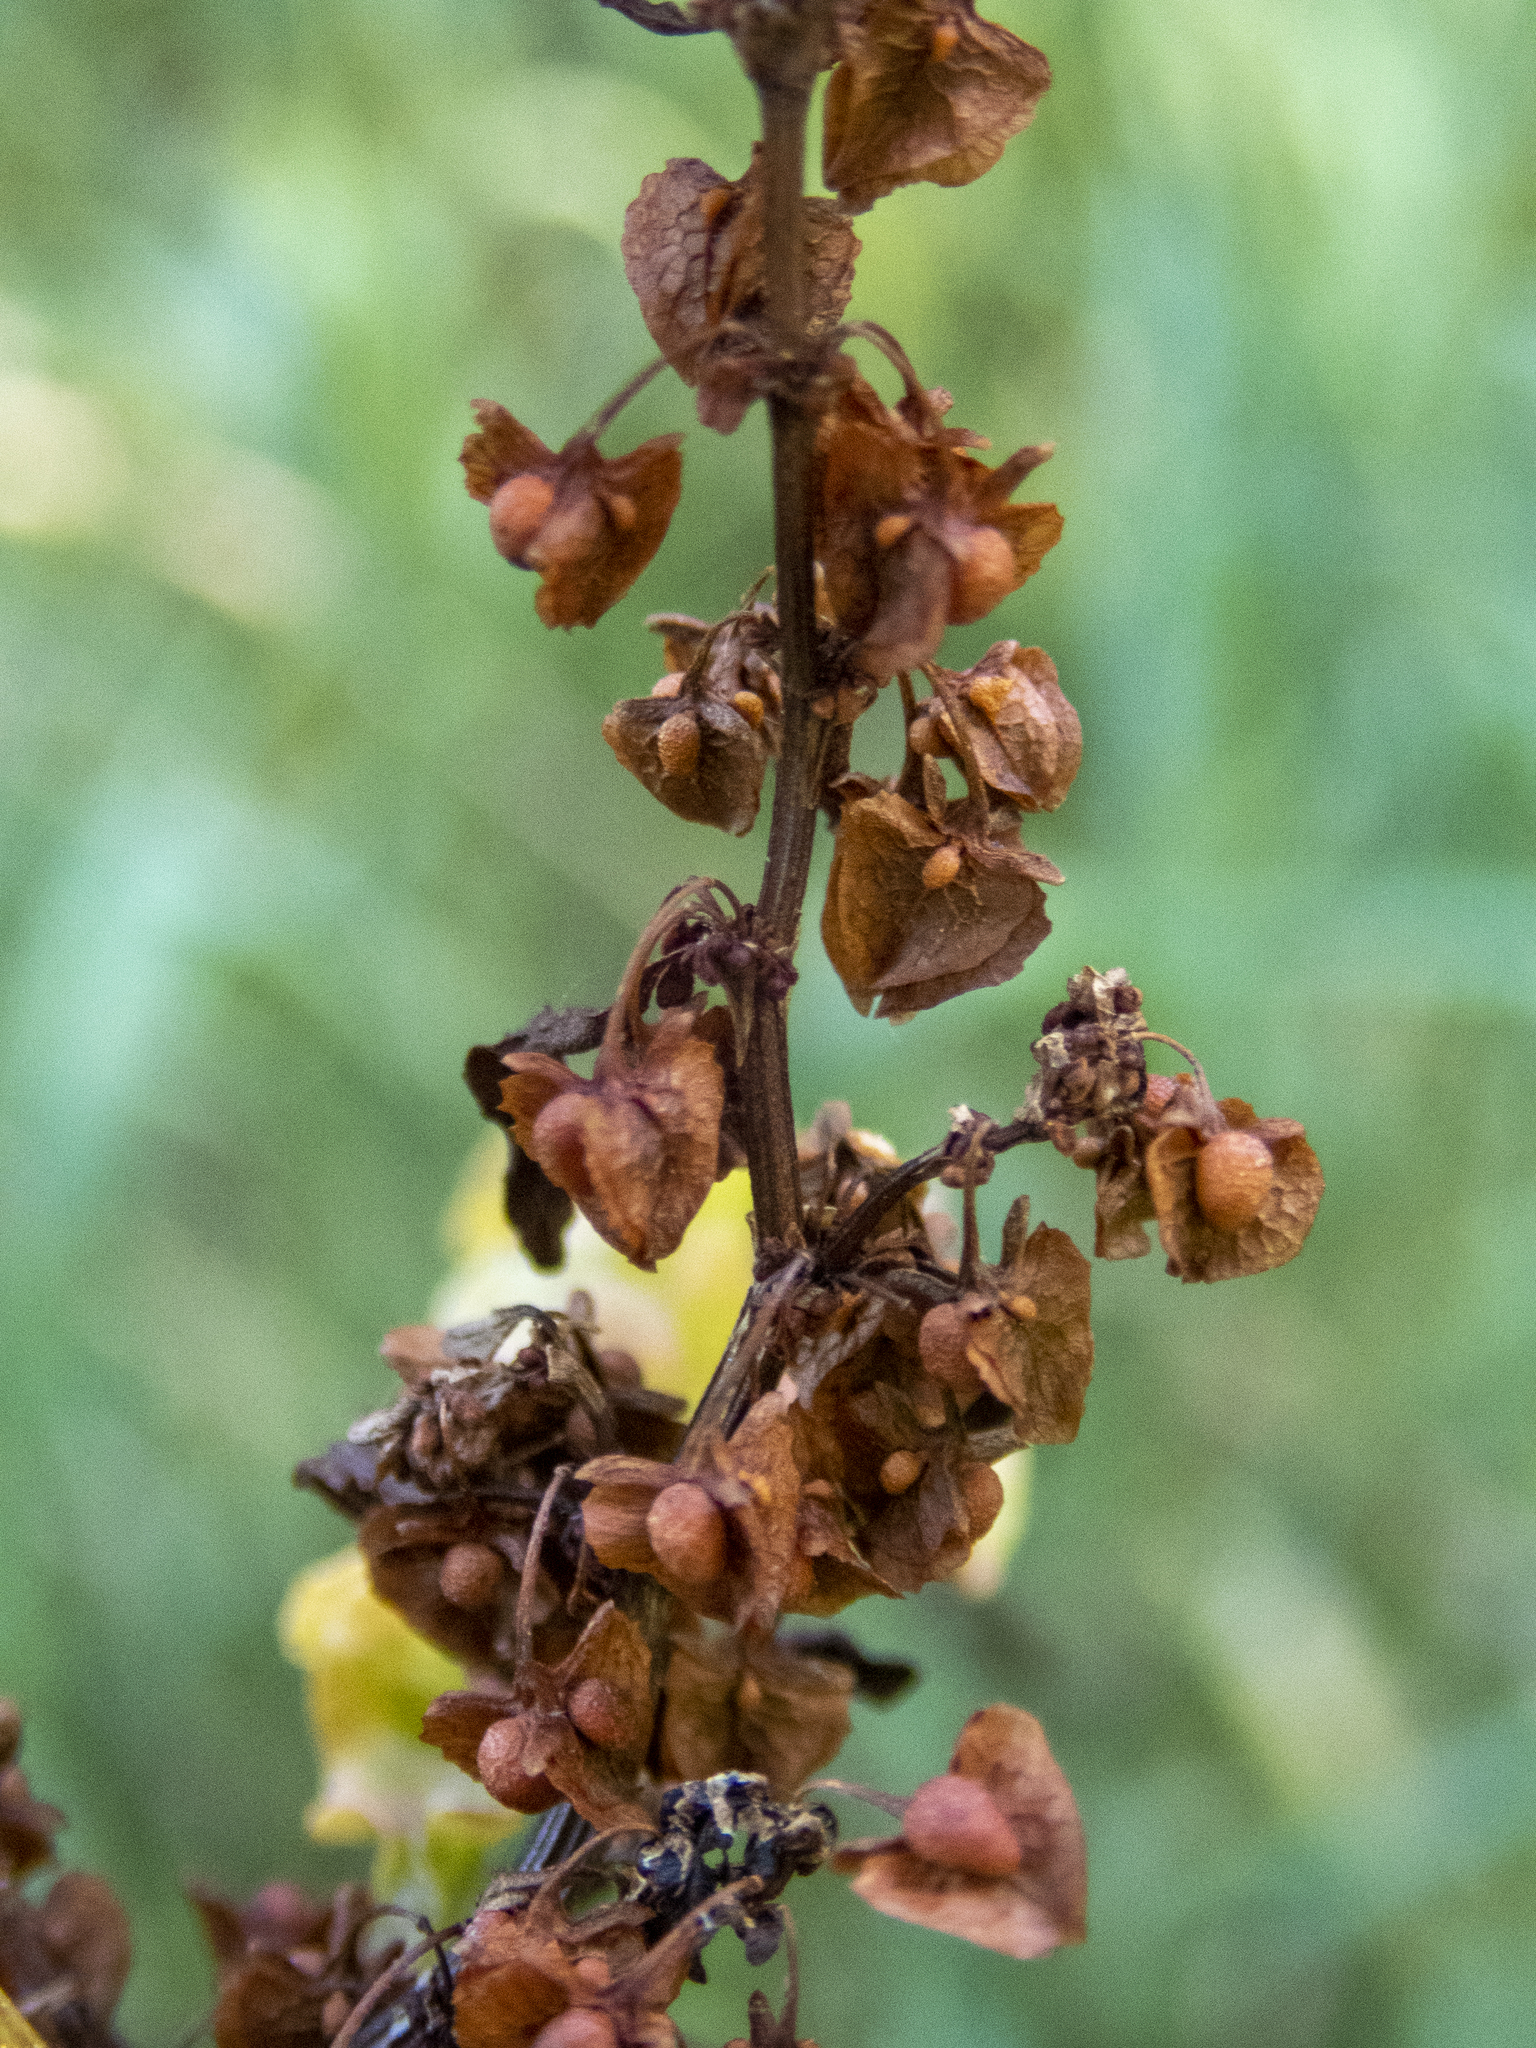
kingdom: Plantae
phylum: Tracheophyta
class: Magnoliopsida
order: Caryophyllales
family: Polygonaceae
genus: Rumex
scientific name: Rumex crispus
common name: Curled dock
